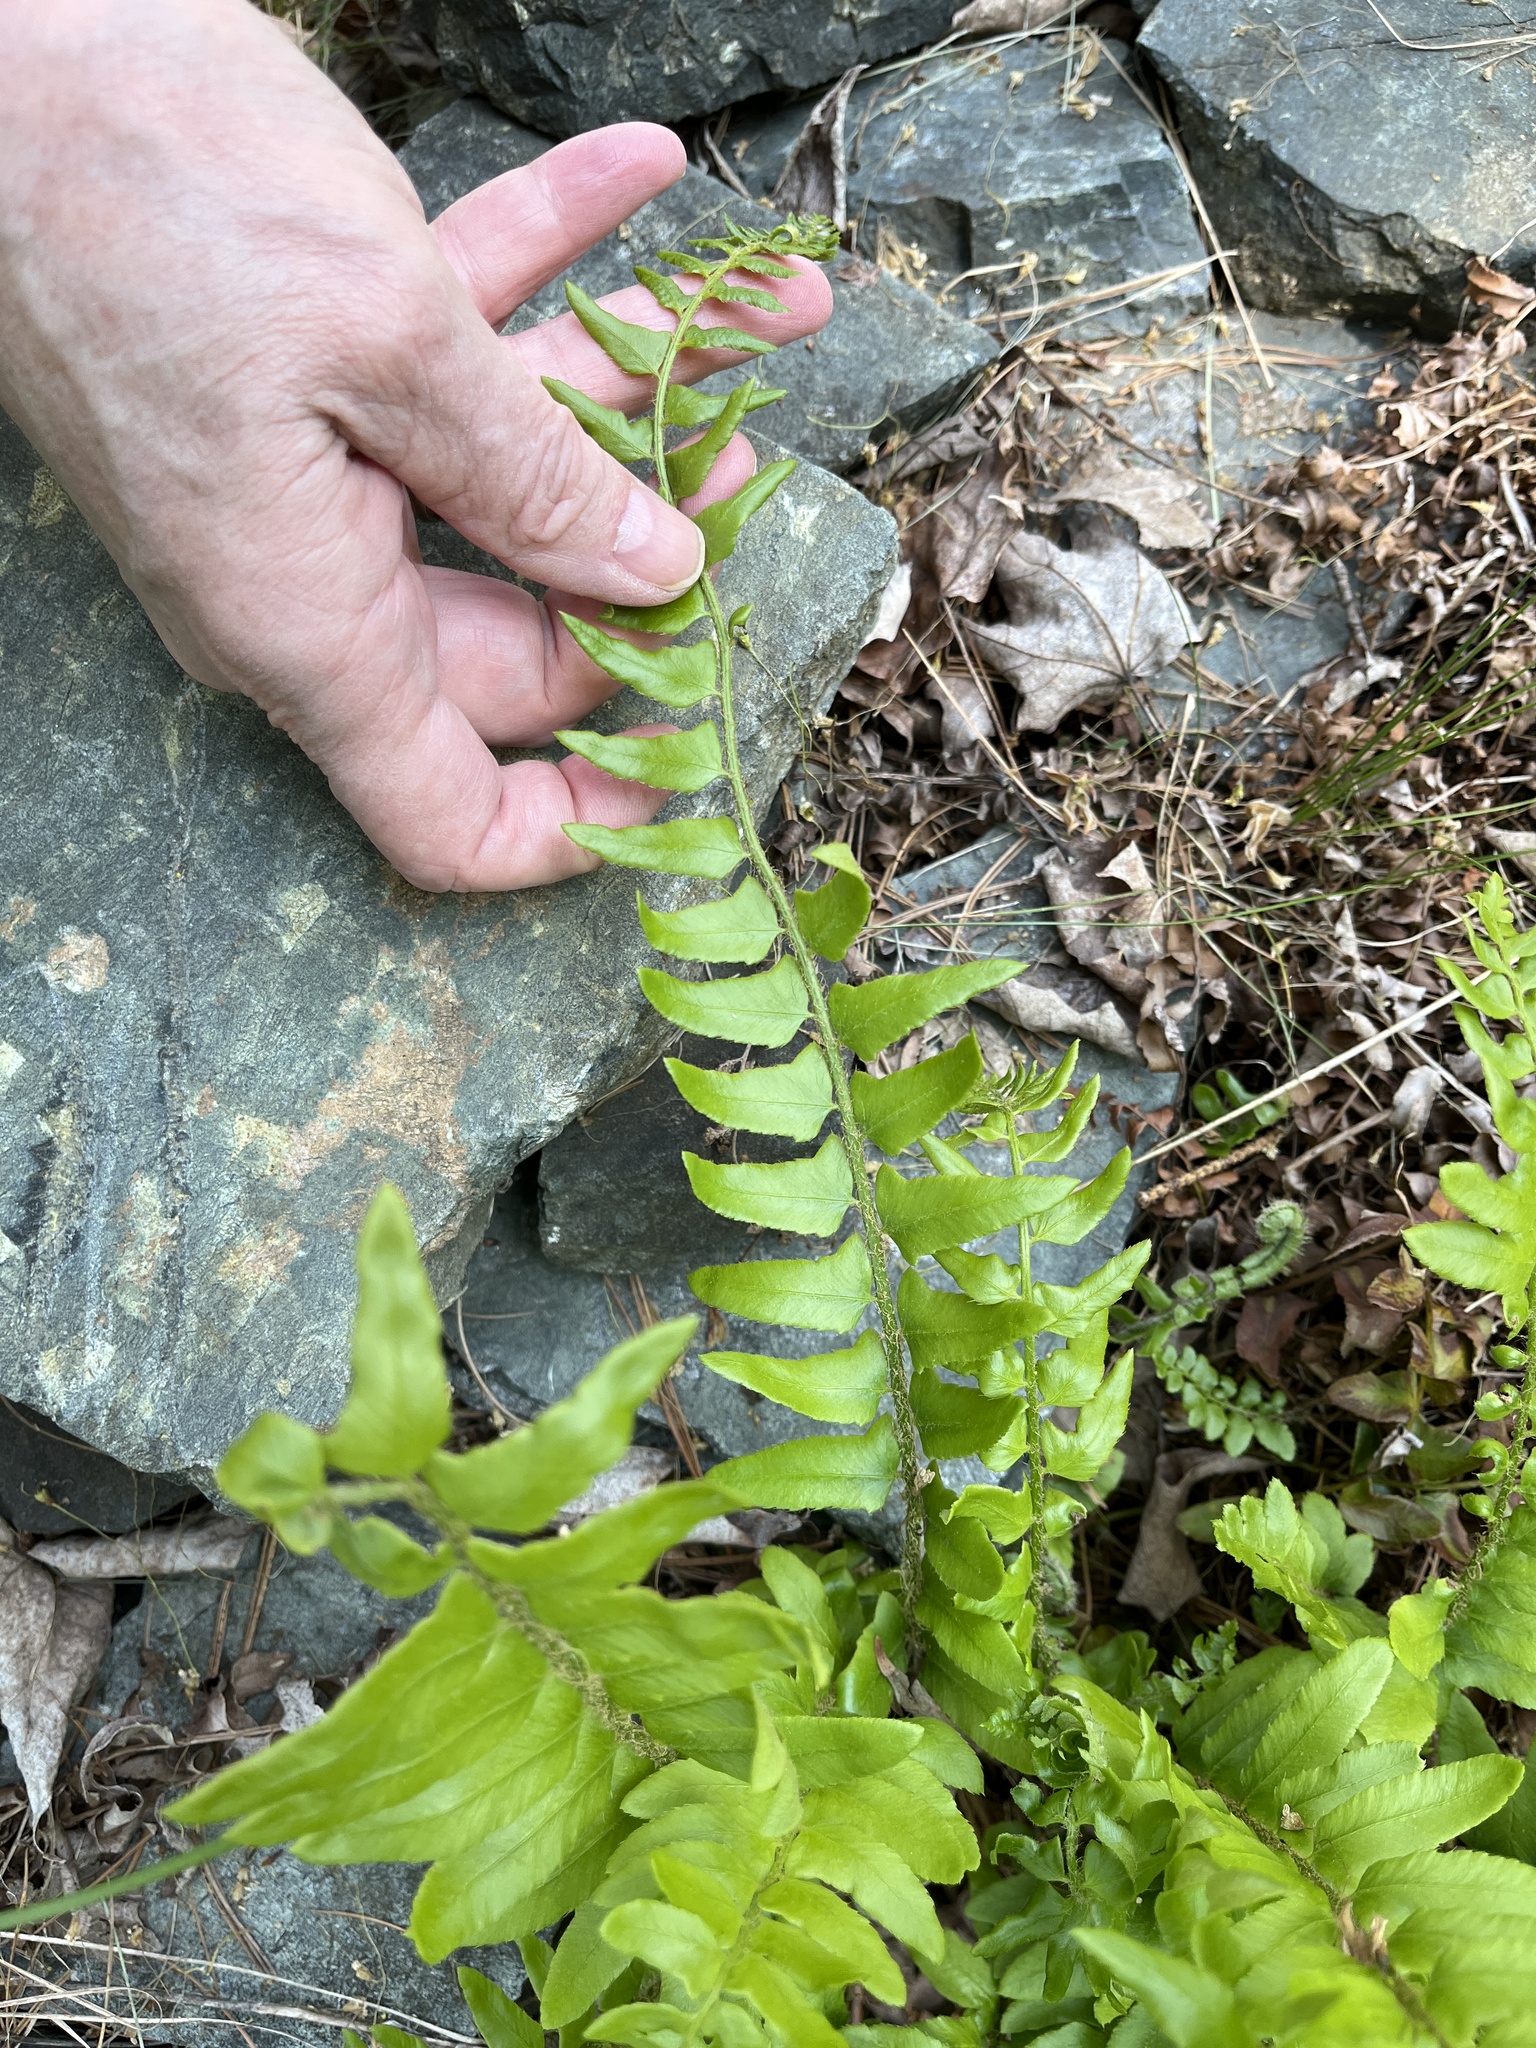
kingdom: Plantae
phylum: Tracheophyta
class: Polypodiopsida
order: Polypodiales
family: Dryopteridaceae
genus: Polystichum
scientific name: Polystichum acrostichoides
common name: Christmas fern
